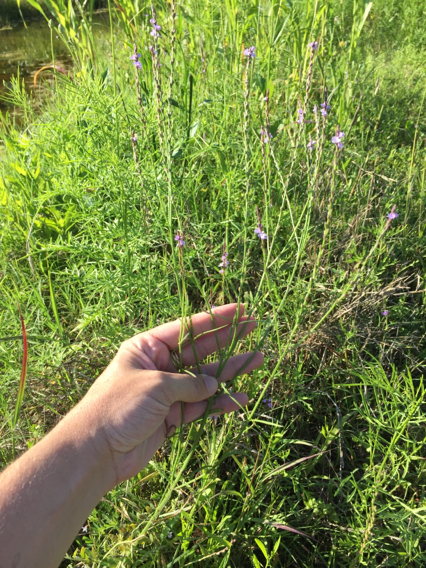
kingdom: Plantae
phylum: Tracheophyta
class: Magnoliopsida
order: Lamiales
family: Verbenaceae
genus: Verbena
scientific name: Verbena halei
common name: Texas vervain
